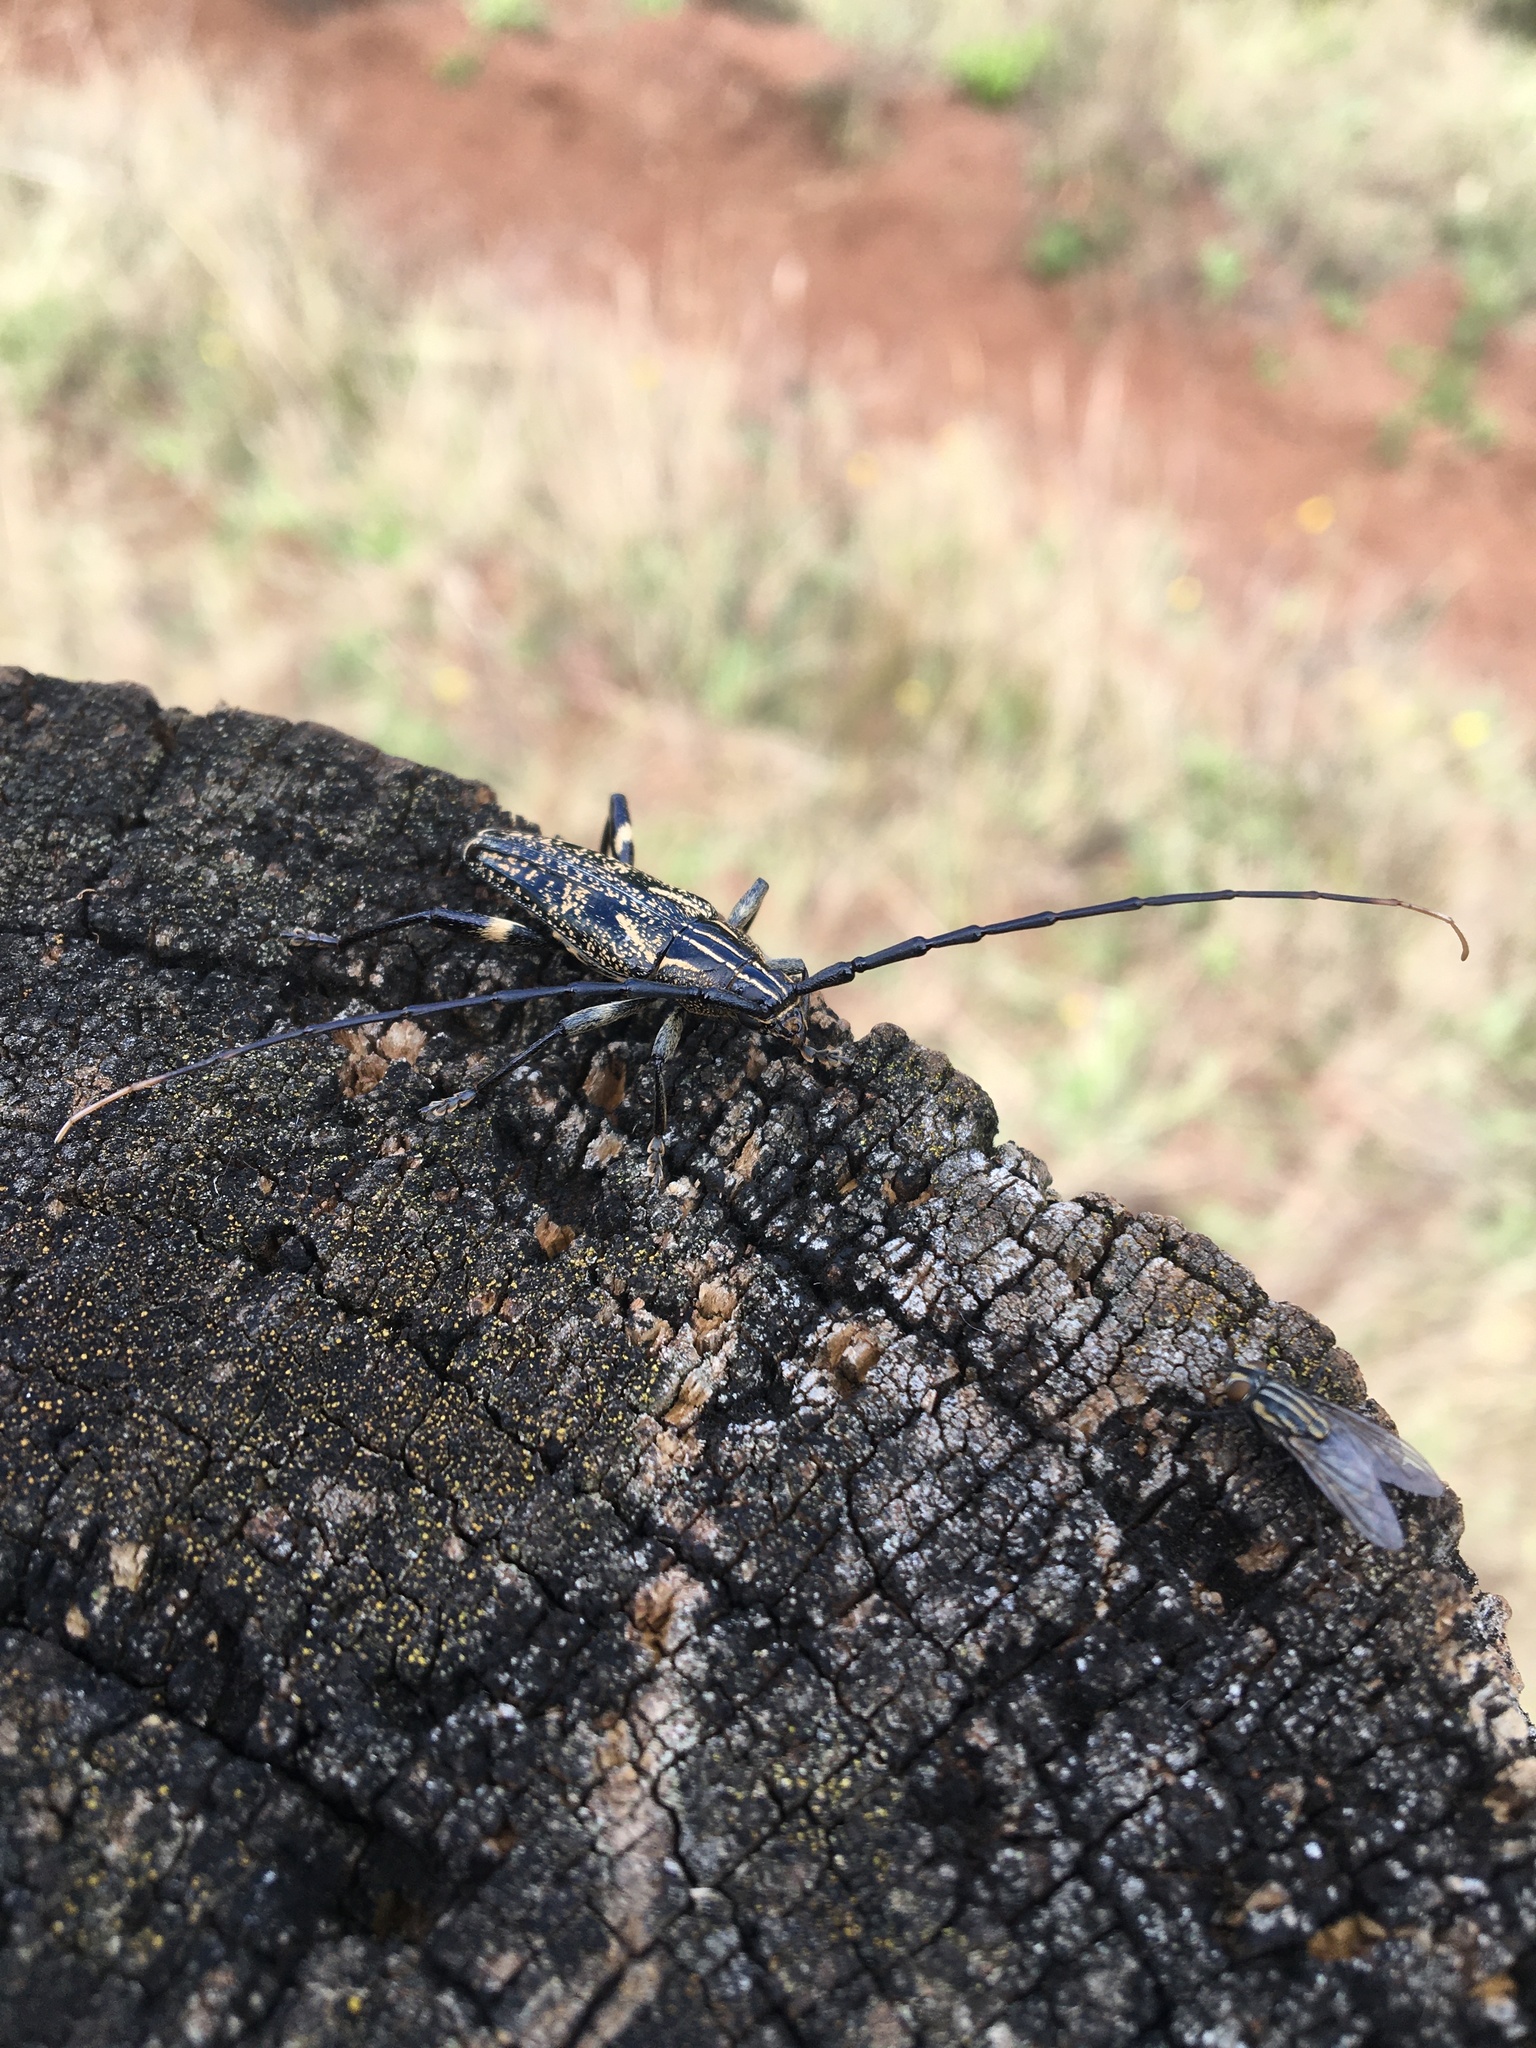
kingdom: Animalia
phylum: Arthropoda
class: Insecta
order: Coleoptera
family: Cerambycidae
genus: Coptomma
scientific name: Coptomma variegatum
